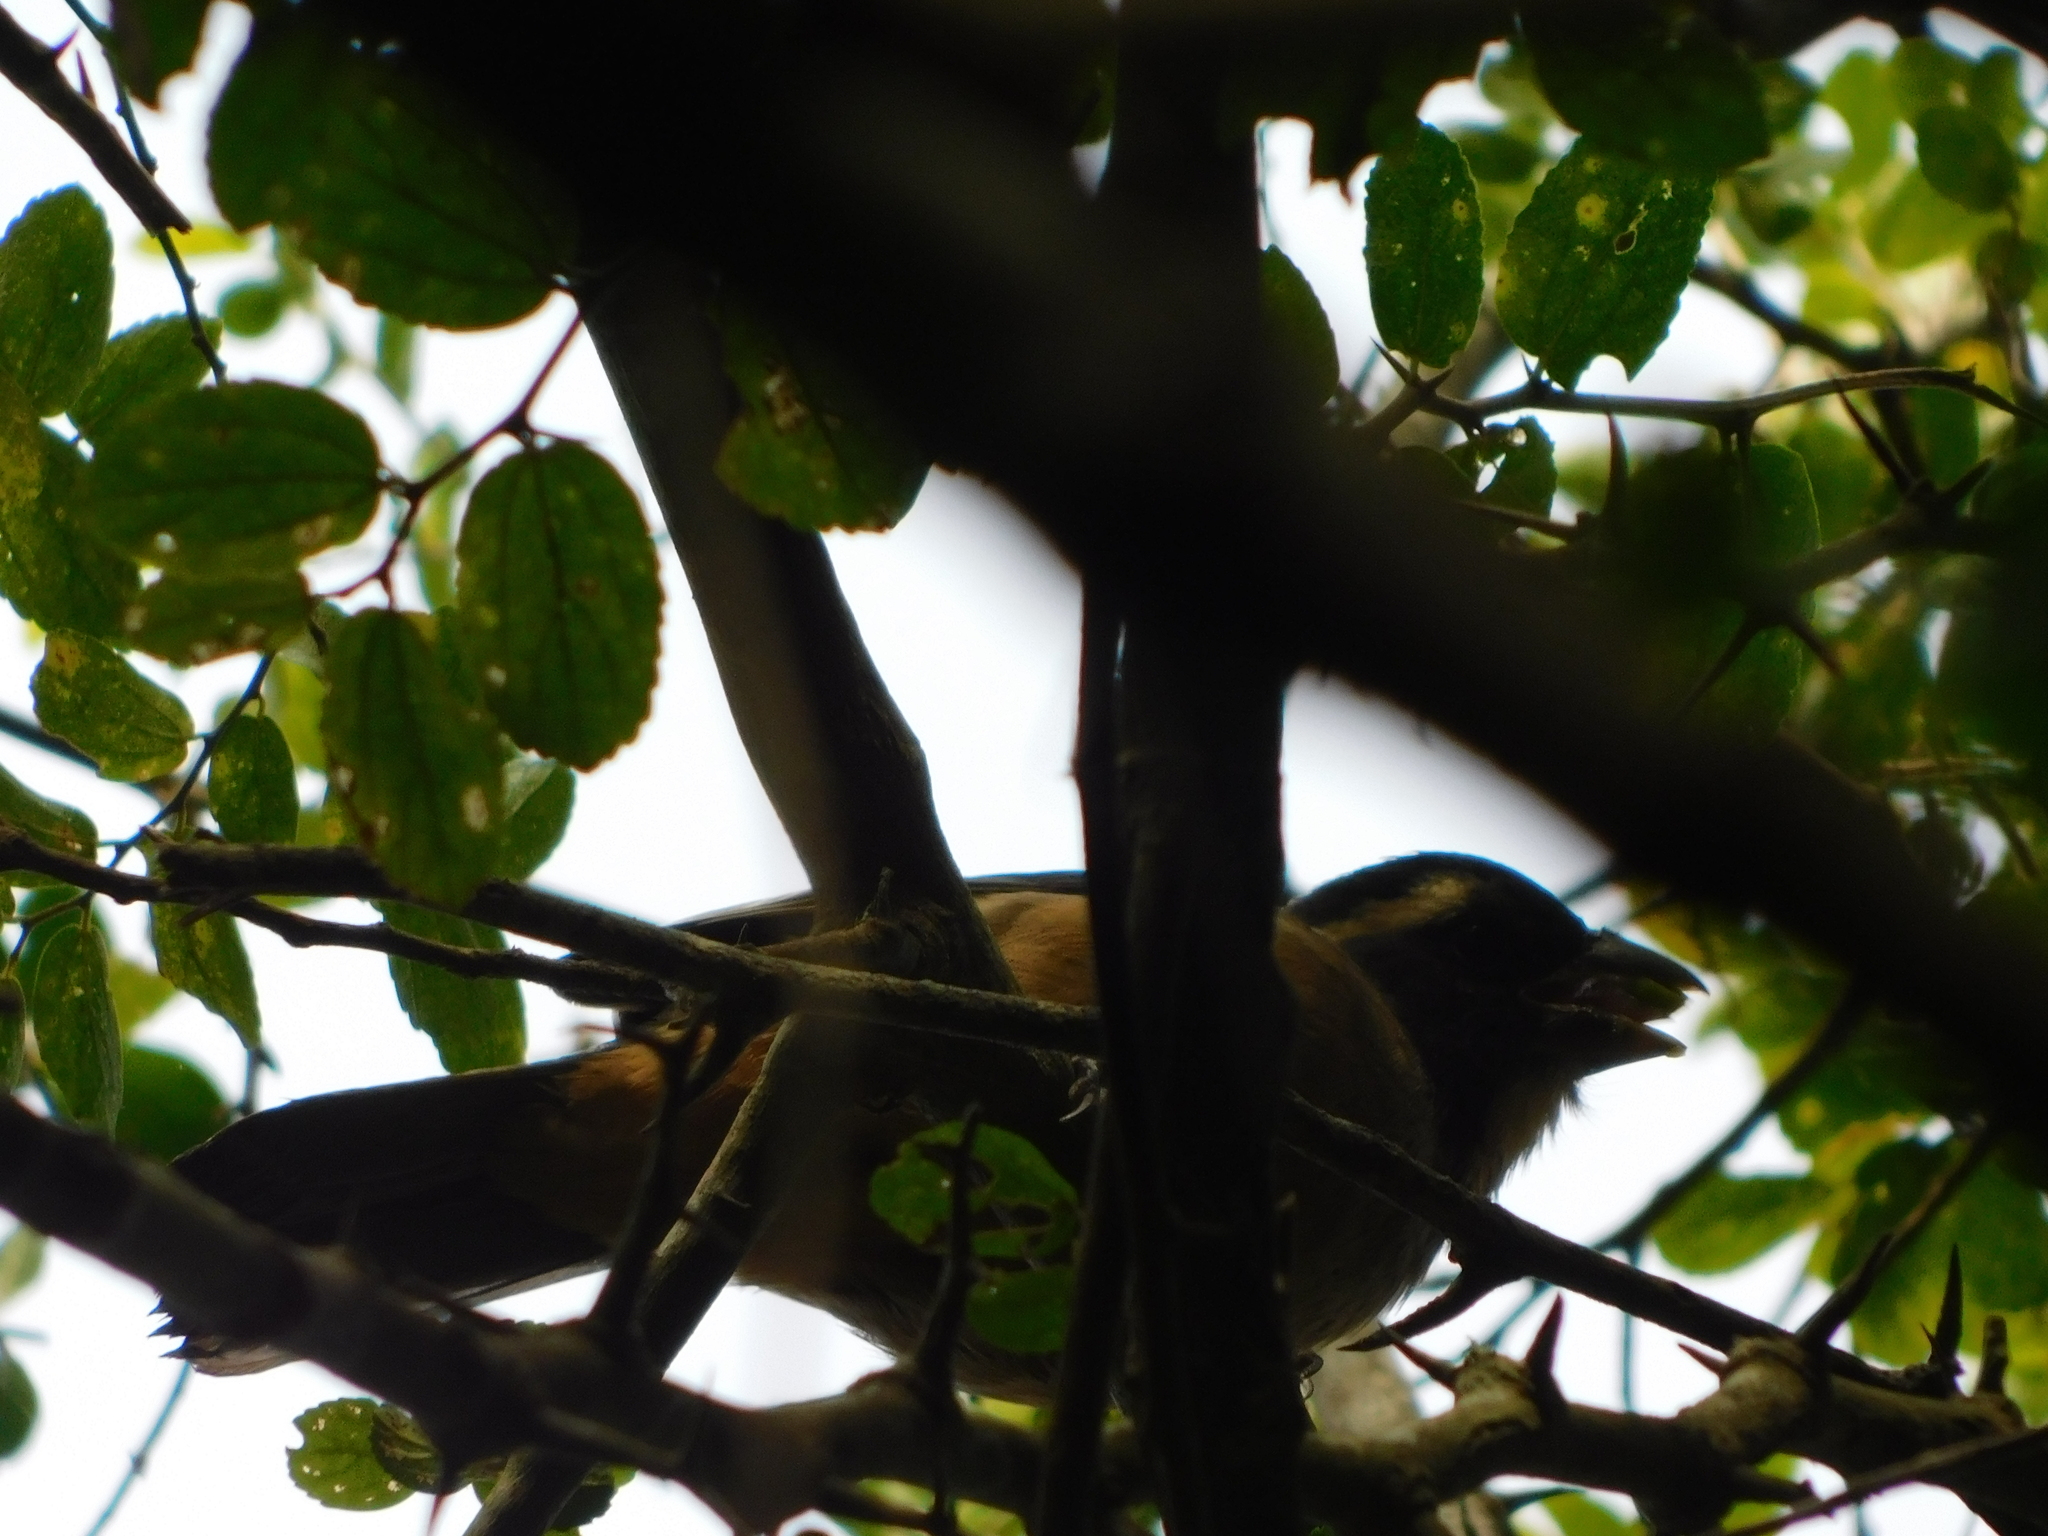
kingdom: Animalia
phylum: Chordata
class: Aves
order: Passeriformes
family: Thraupidae
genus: Saltator
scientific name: Saltator aurantiirostris
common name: Golden-billed saltator
